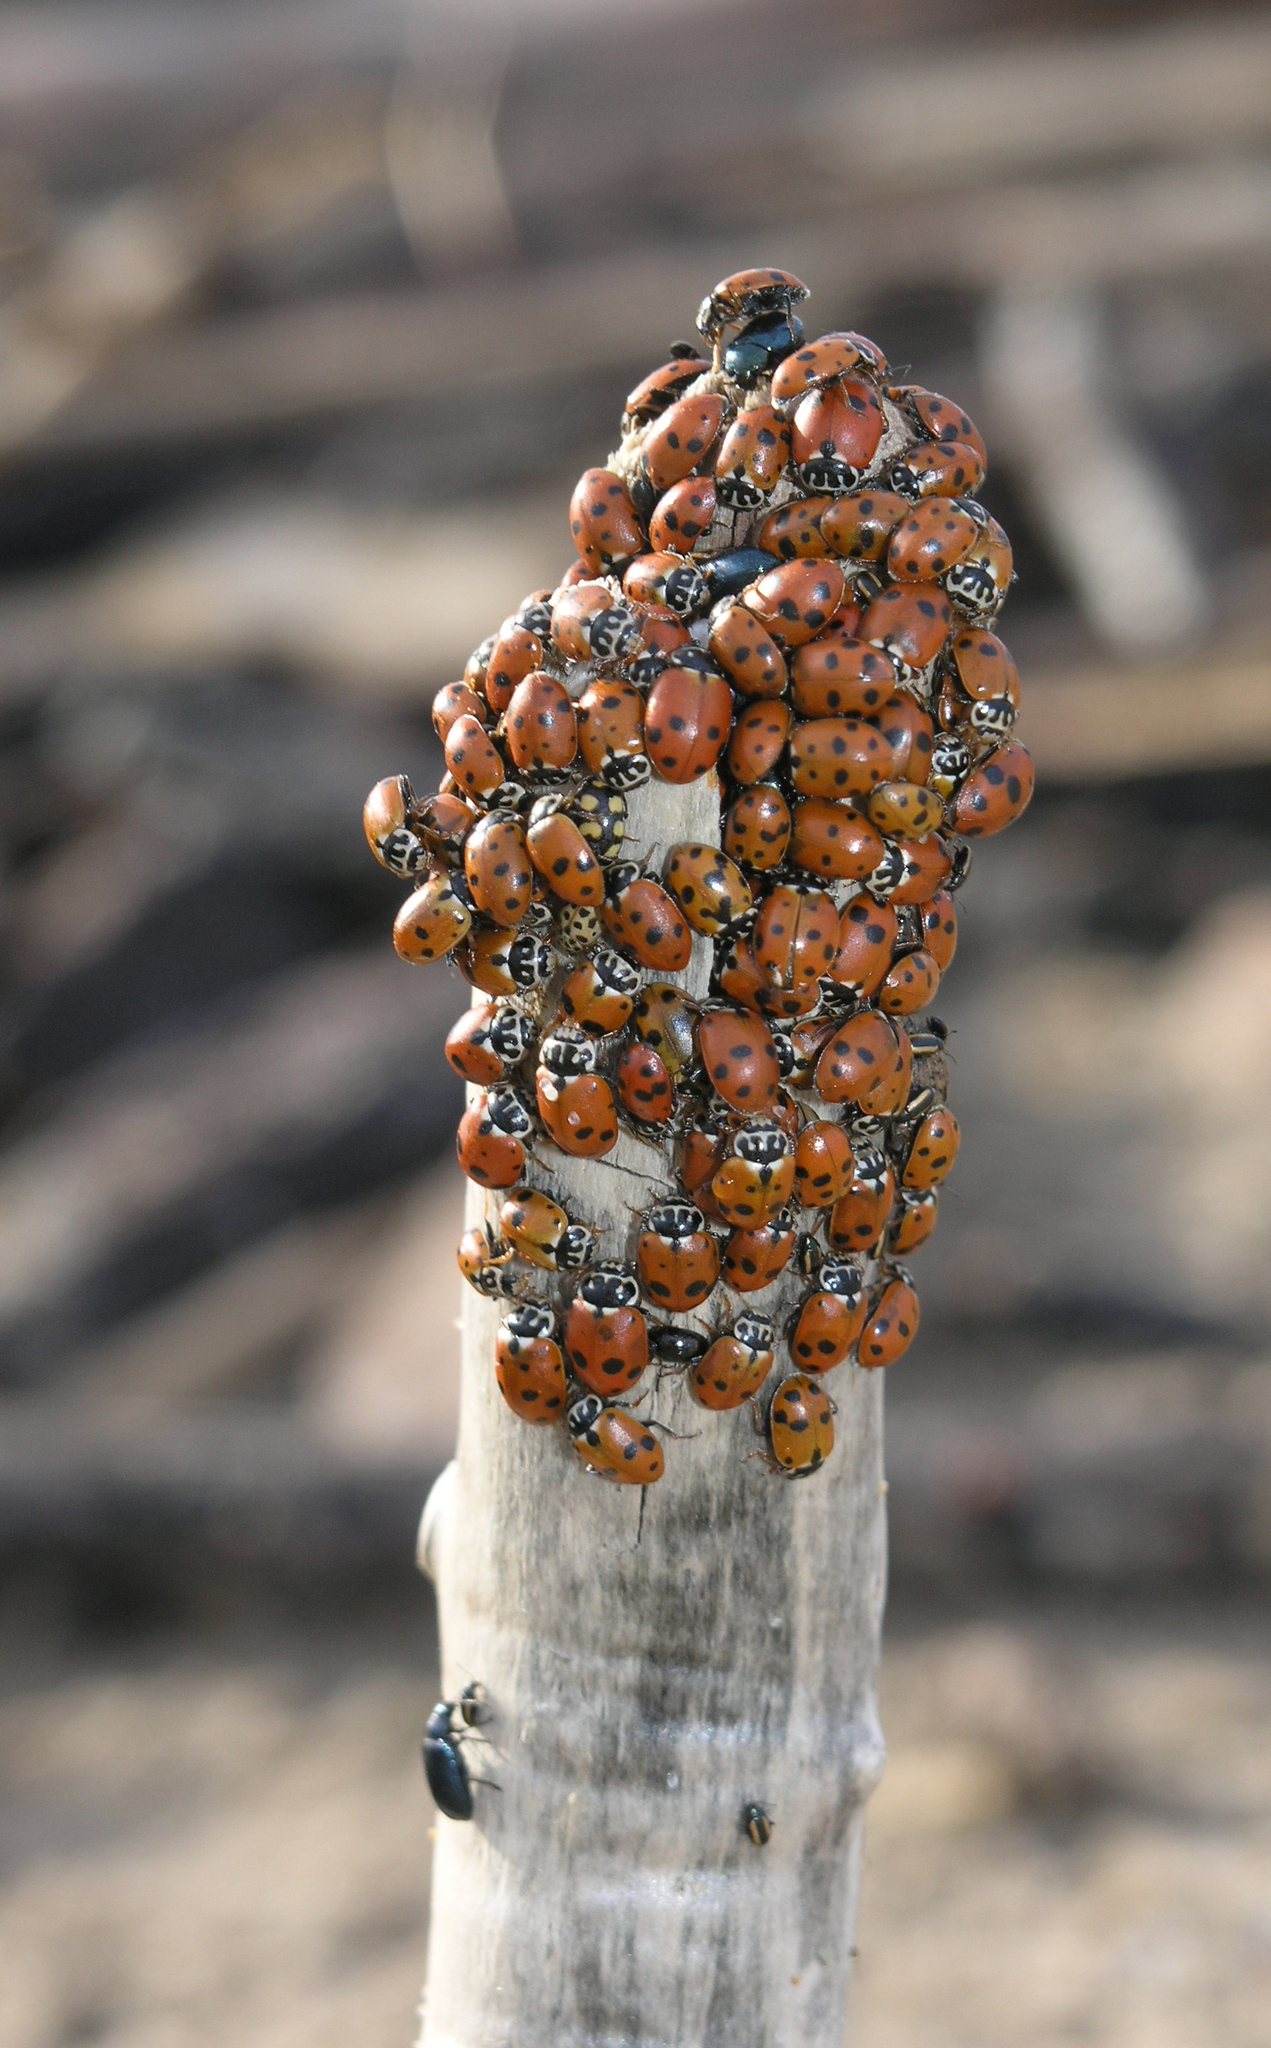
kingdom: Animalia
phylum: Arthropoda
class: Insecta
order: Coleoptera
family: Coccinellidae
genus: Hippodamia
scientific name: Hippodamia variegata
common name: Ladybird beetle
